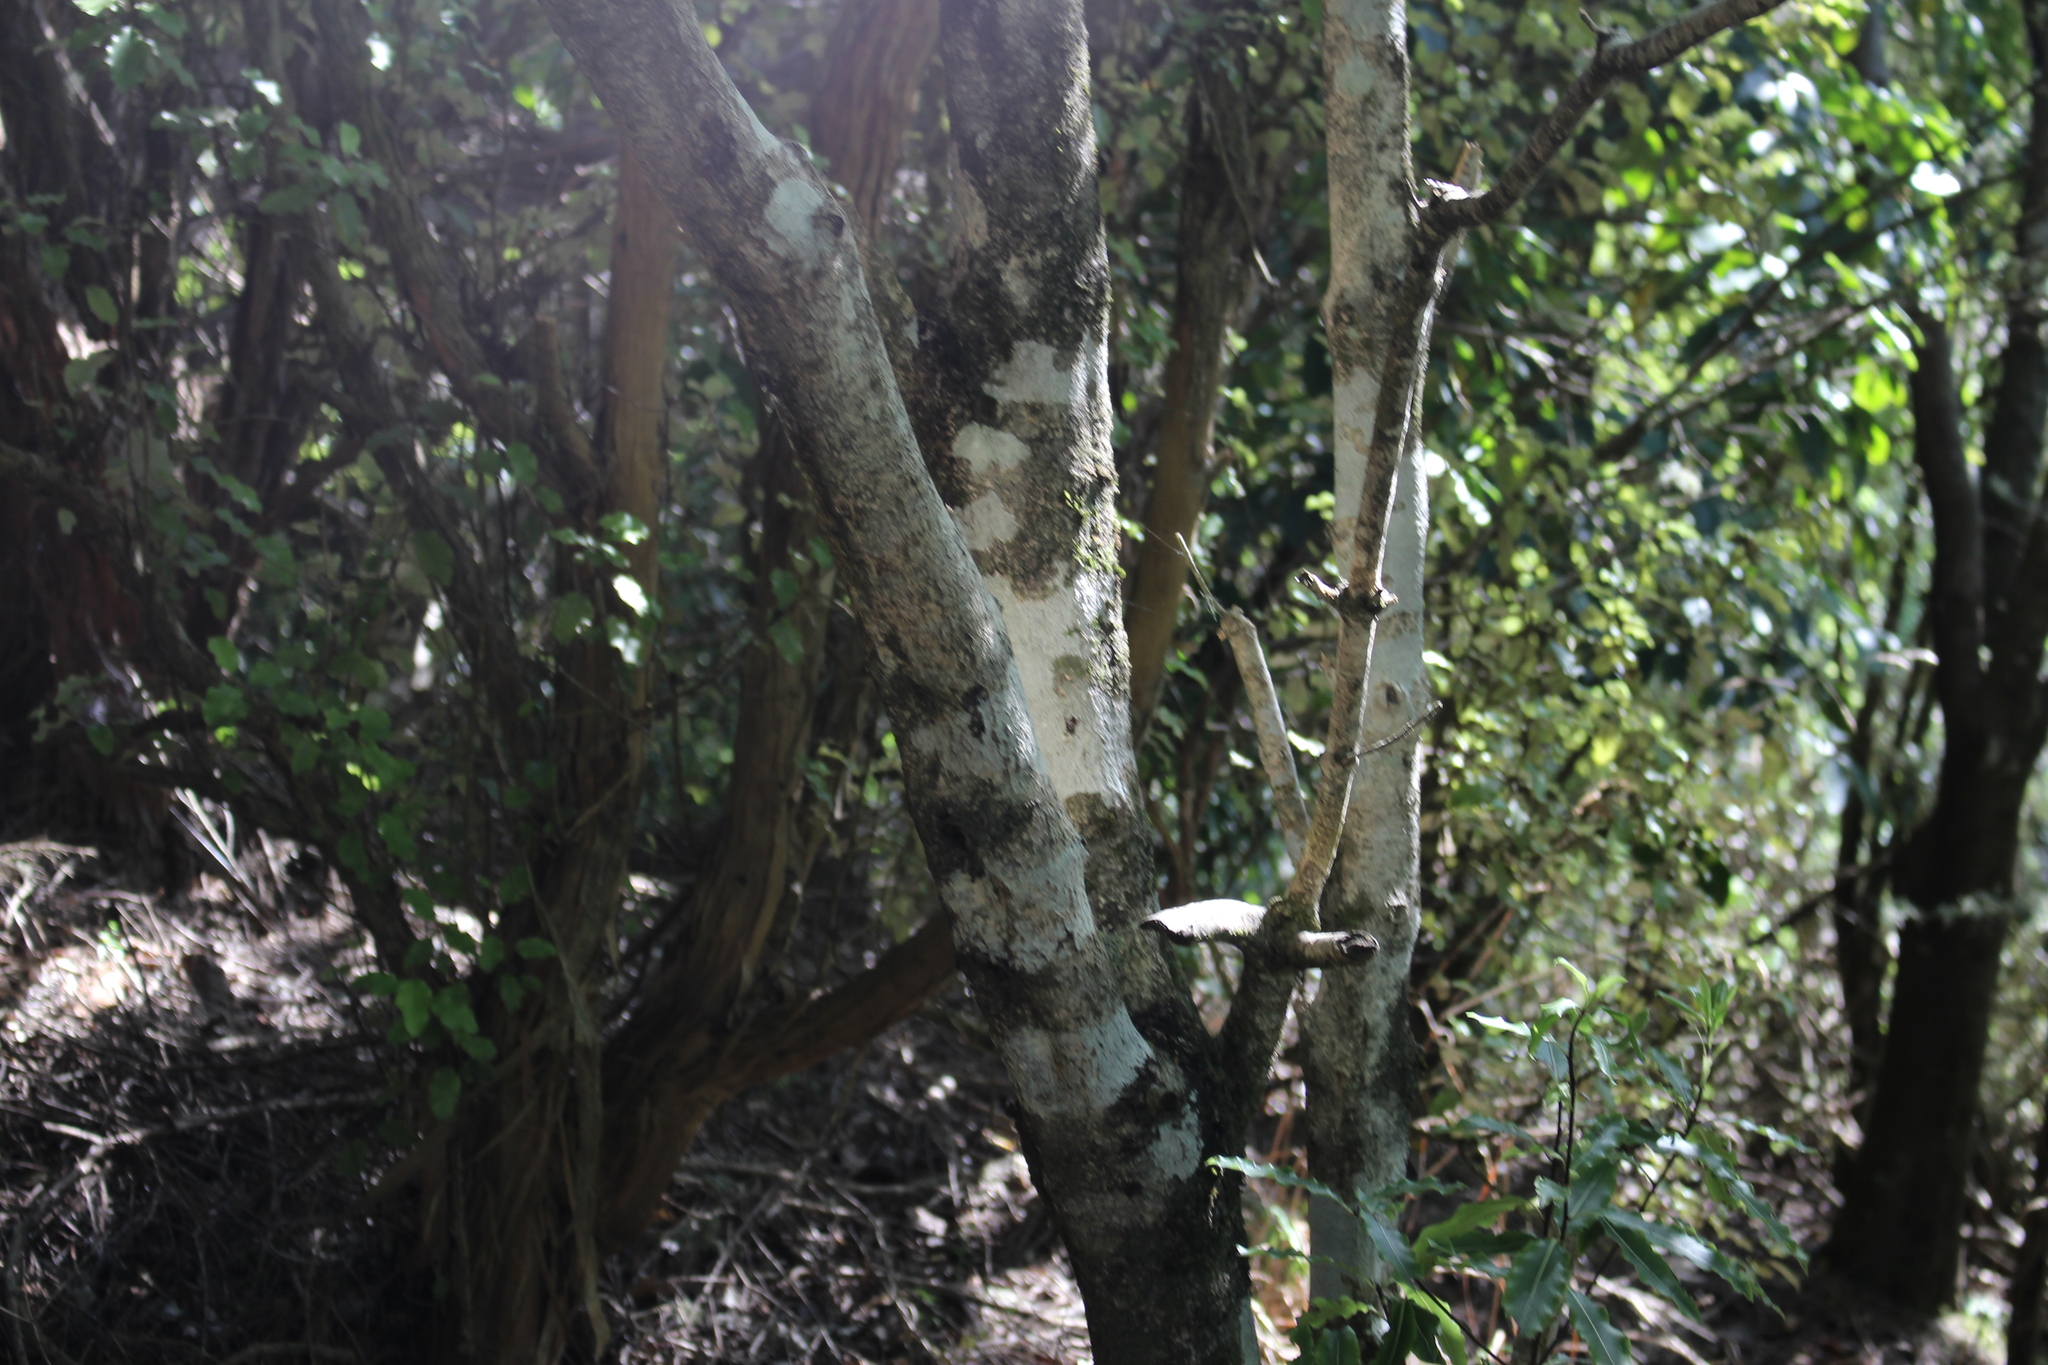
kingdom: Plantae
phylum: Tracheophyta
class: Magnoliopsida
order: Apiales
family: Pittosporaceae
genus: Pittosporum
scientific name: Pittosporum eugenioides
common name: Lemonwood
